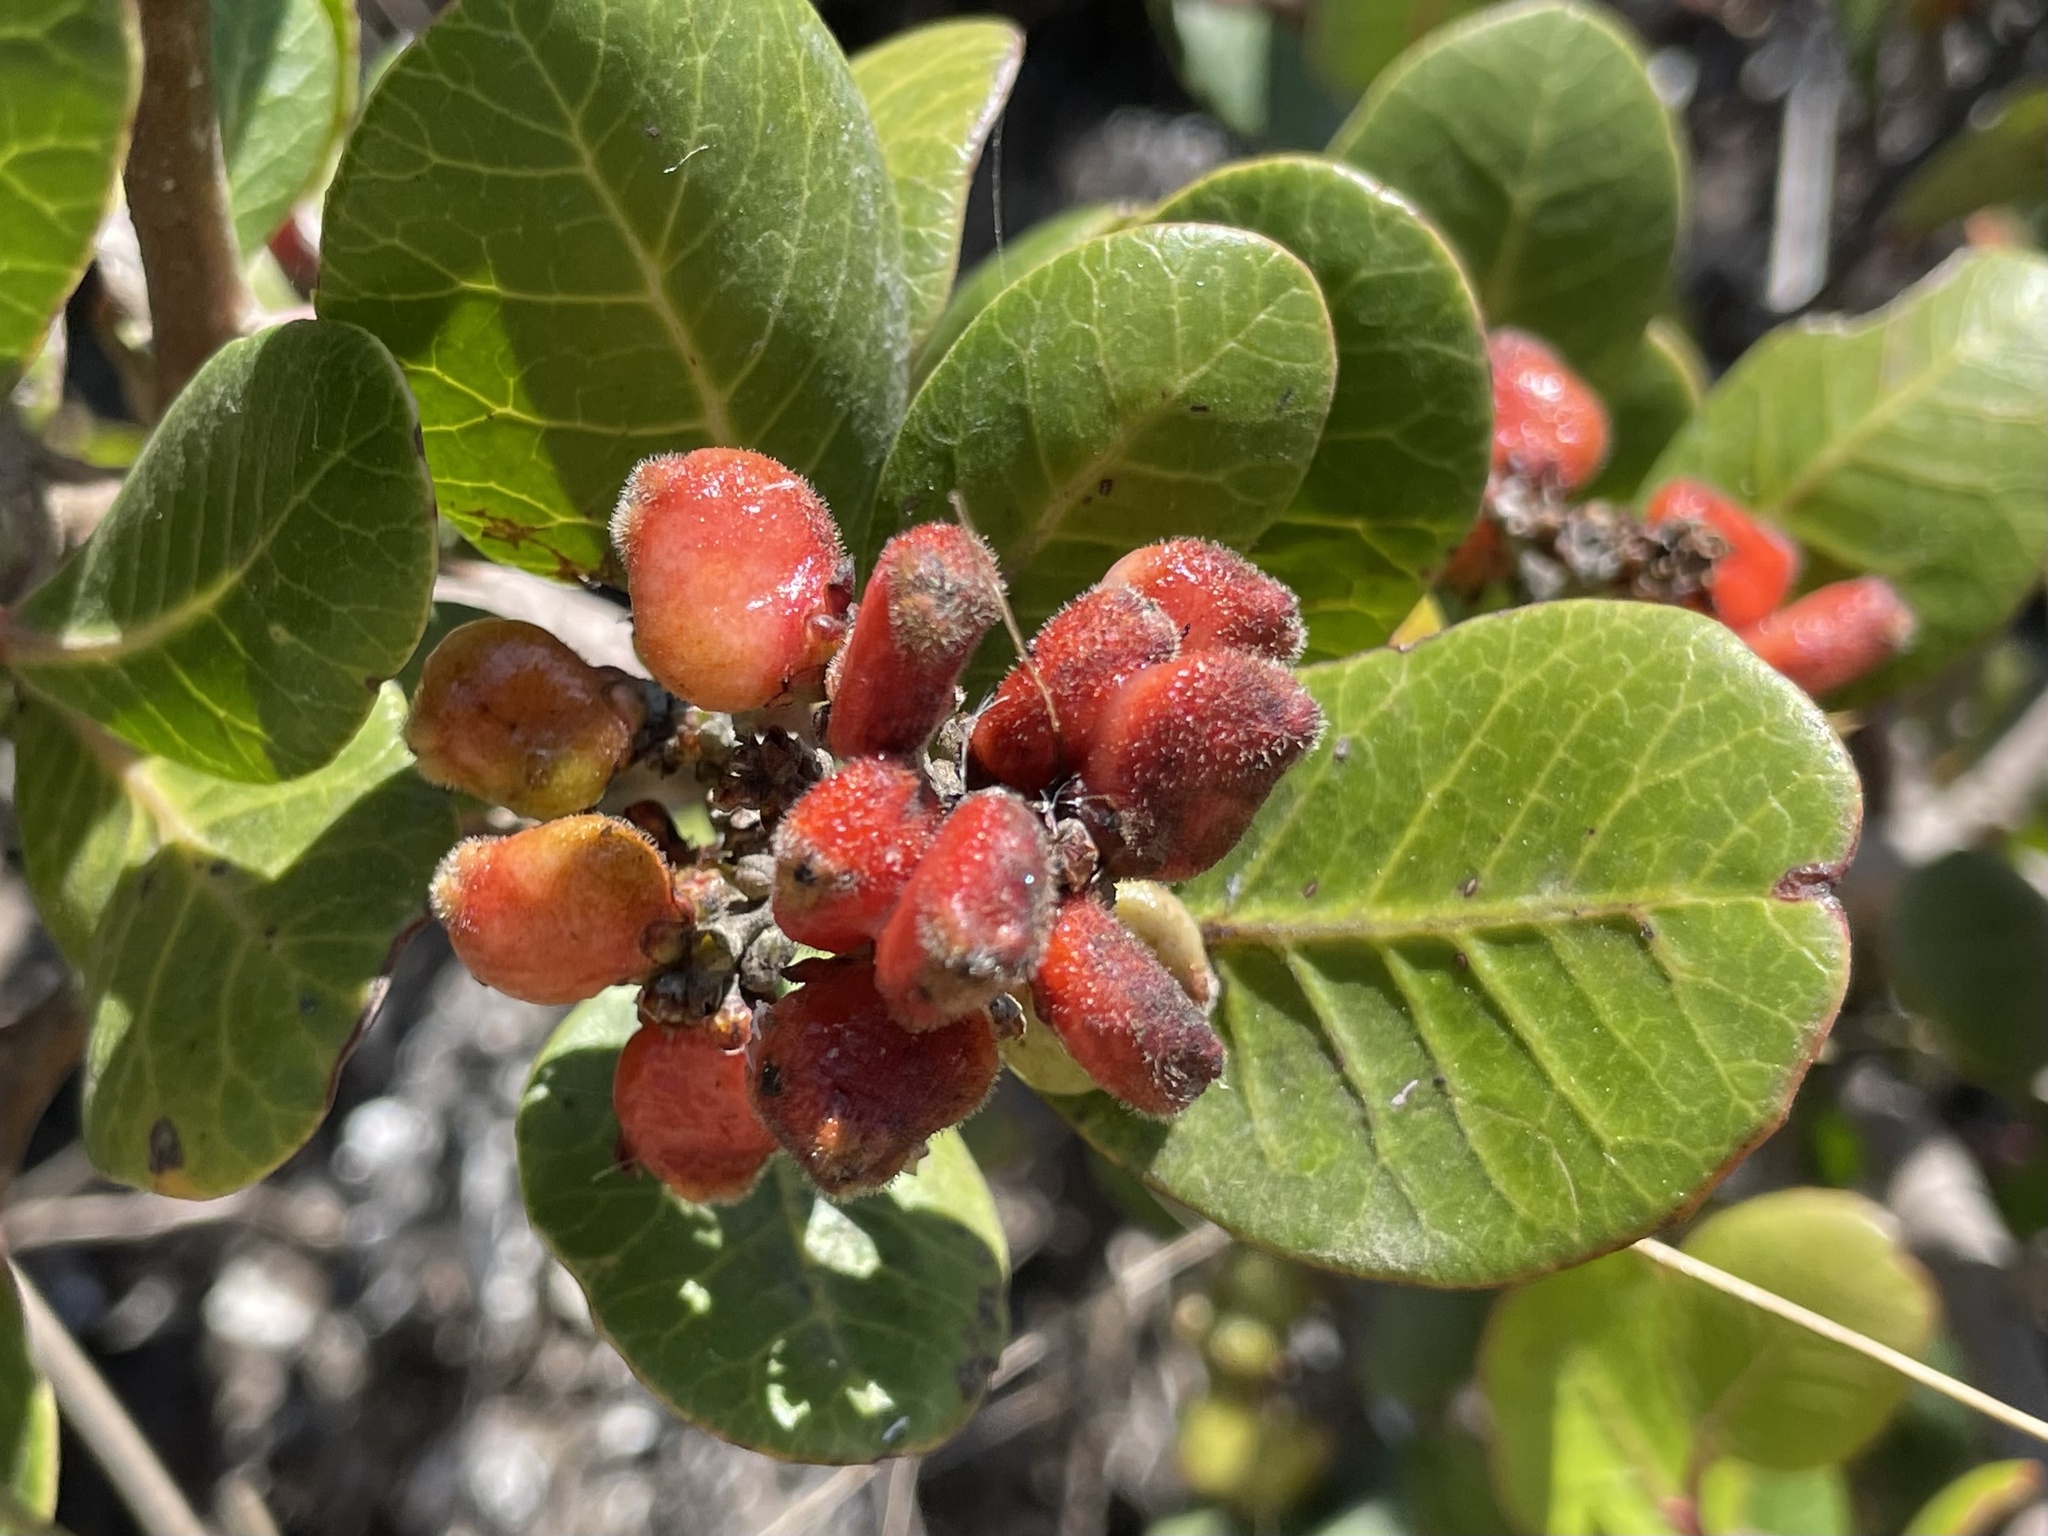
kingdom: Plantae
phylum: Tracheophyta
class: Magnoliopsida
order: Sapindales
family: Anacardiaceae
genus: Rhus
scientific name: Rhus integrifolia
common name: Lemonade sumac
